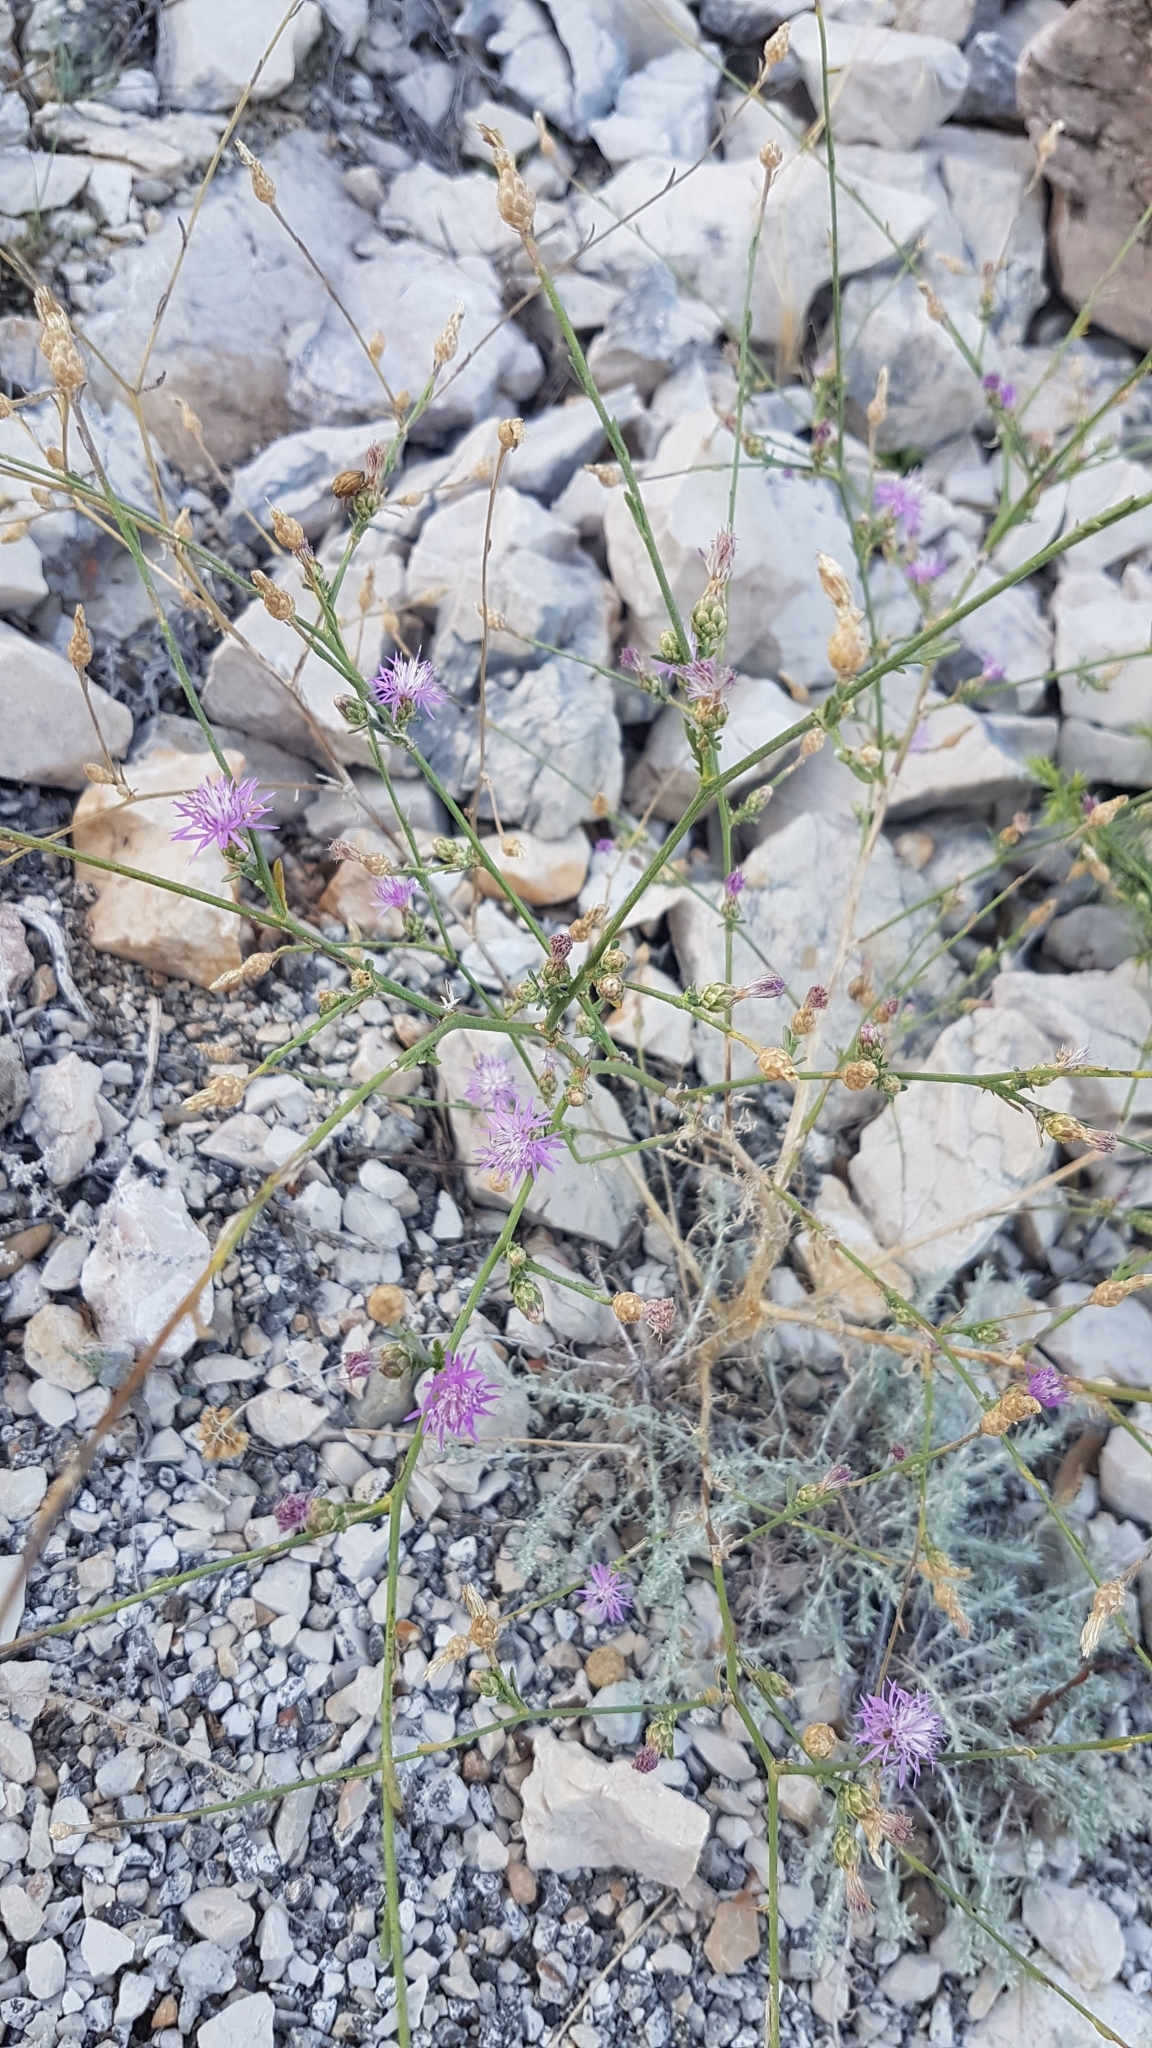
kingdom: Plantae
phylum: Tracheophyta
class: Magnoliopsida
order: Asterales
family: Asteraceae
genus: Centaurea
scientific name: Centaurea deusta
